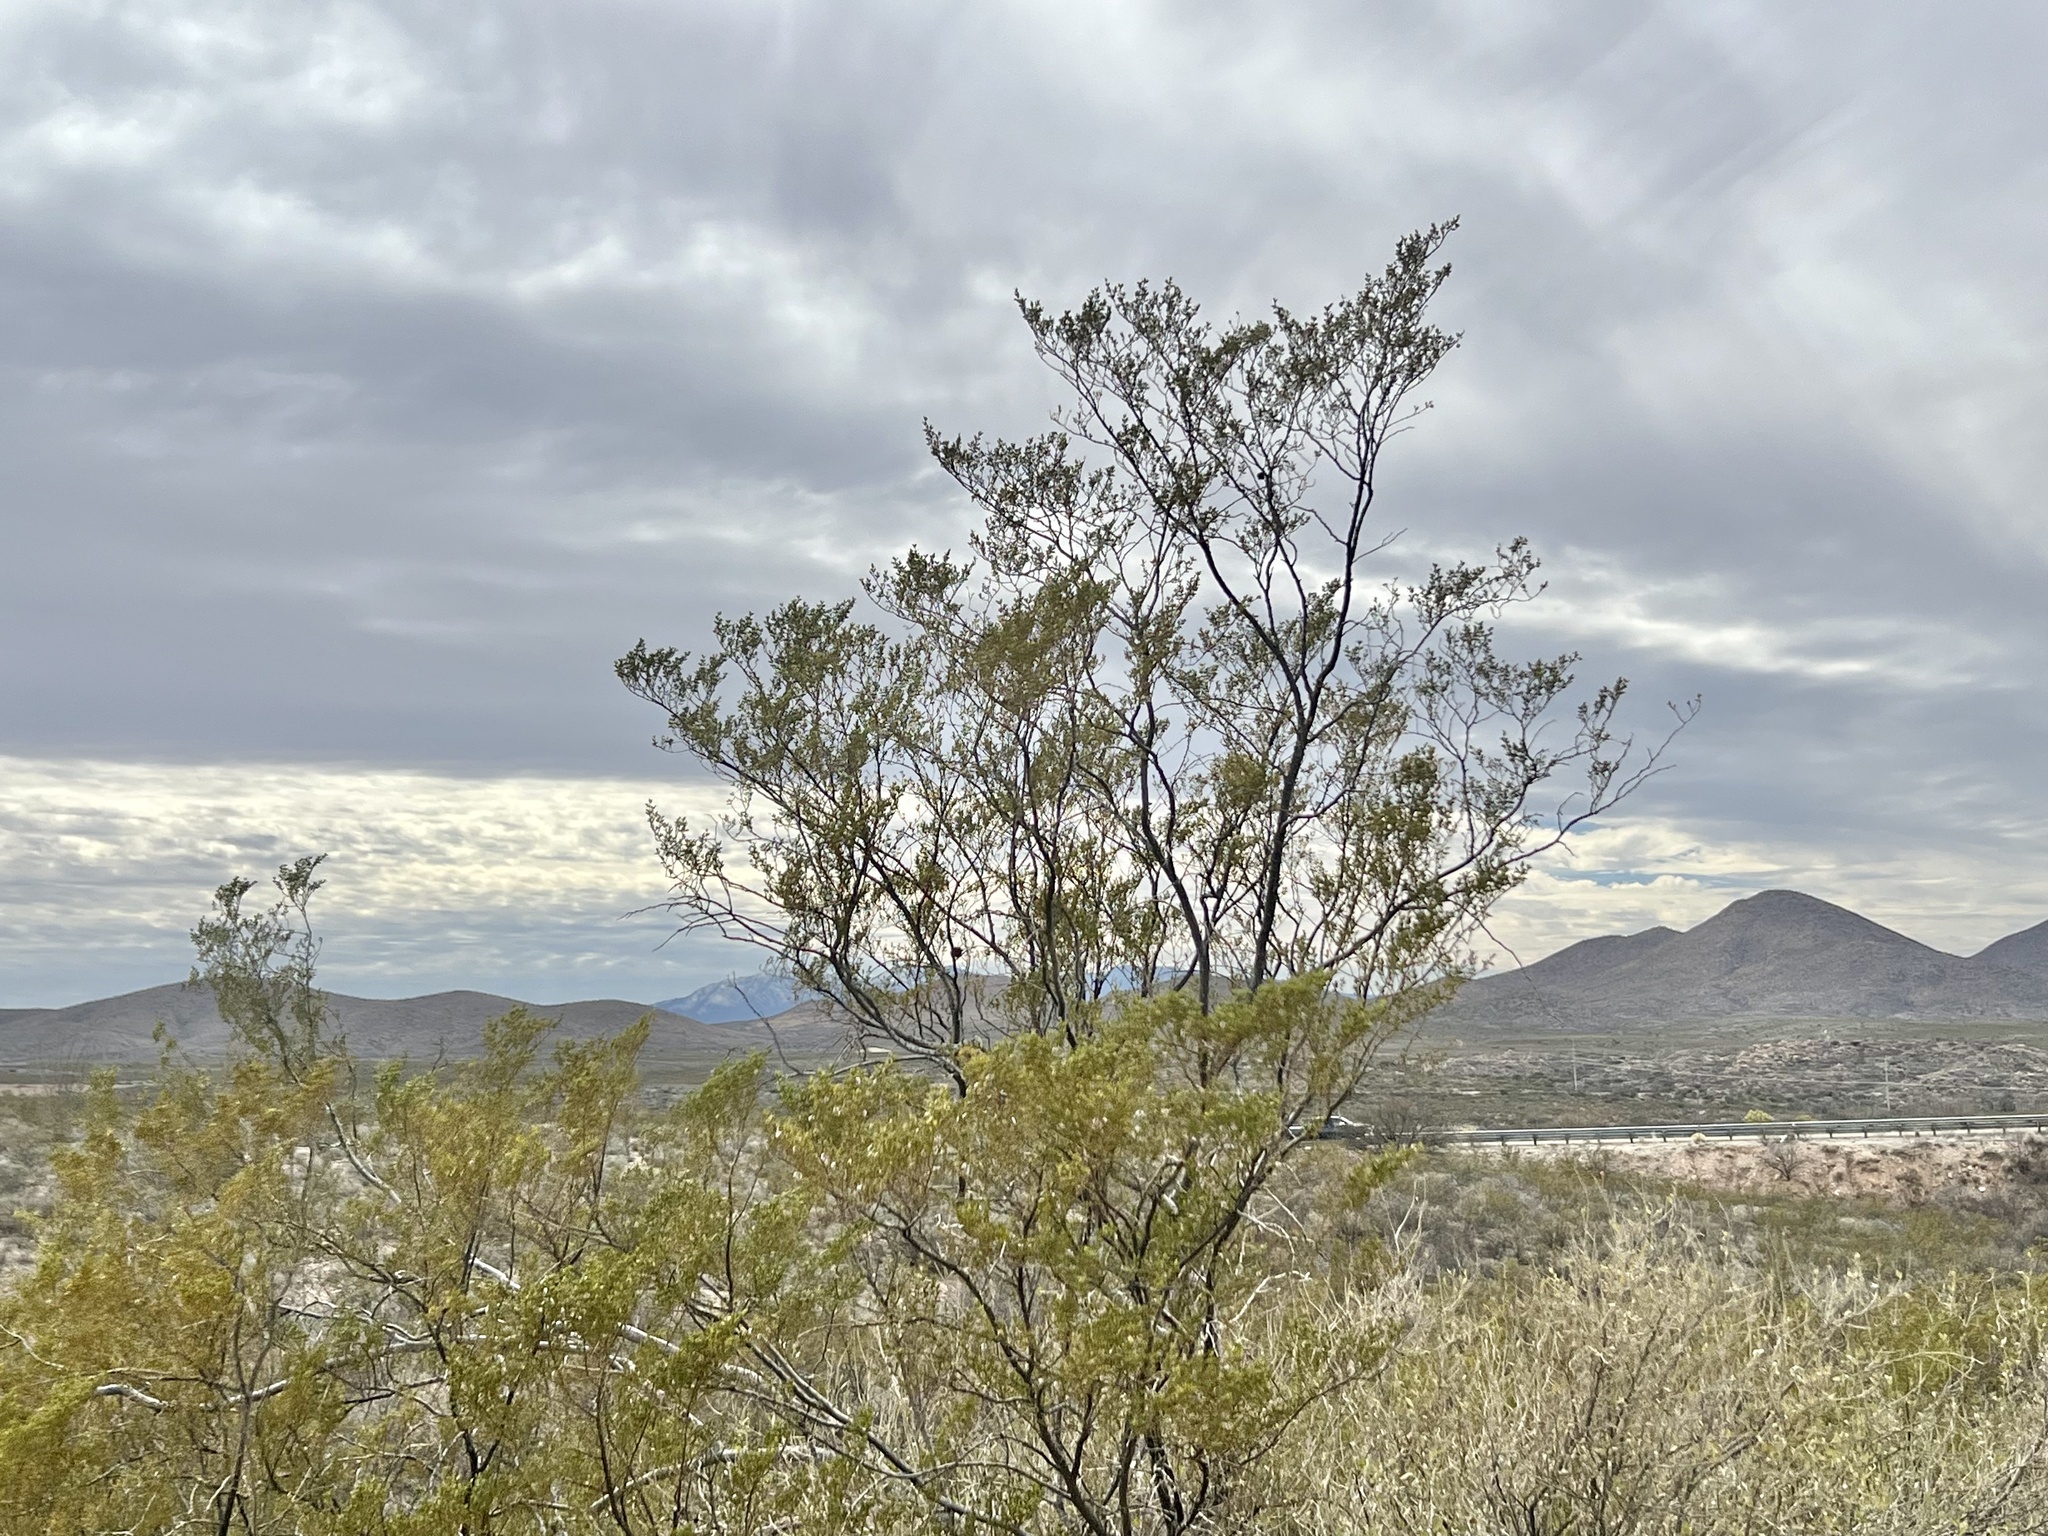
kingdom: Plantae
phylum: Tracheophyta
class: Magnoliopsida
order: Zygophyllales
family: Zygophyllaceae
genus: Larrea
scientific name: Larrea tridentata
